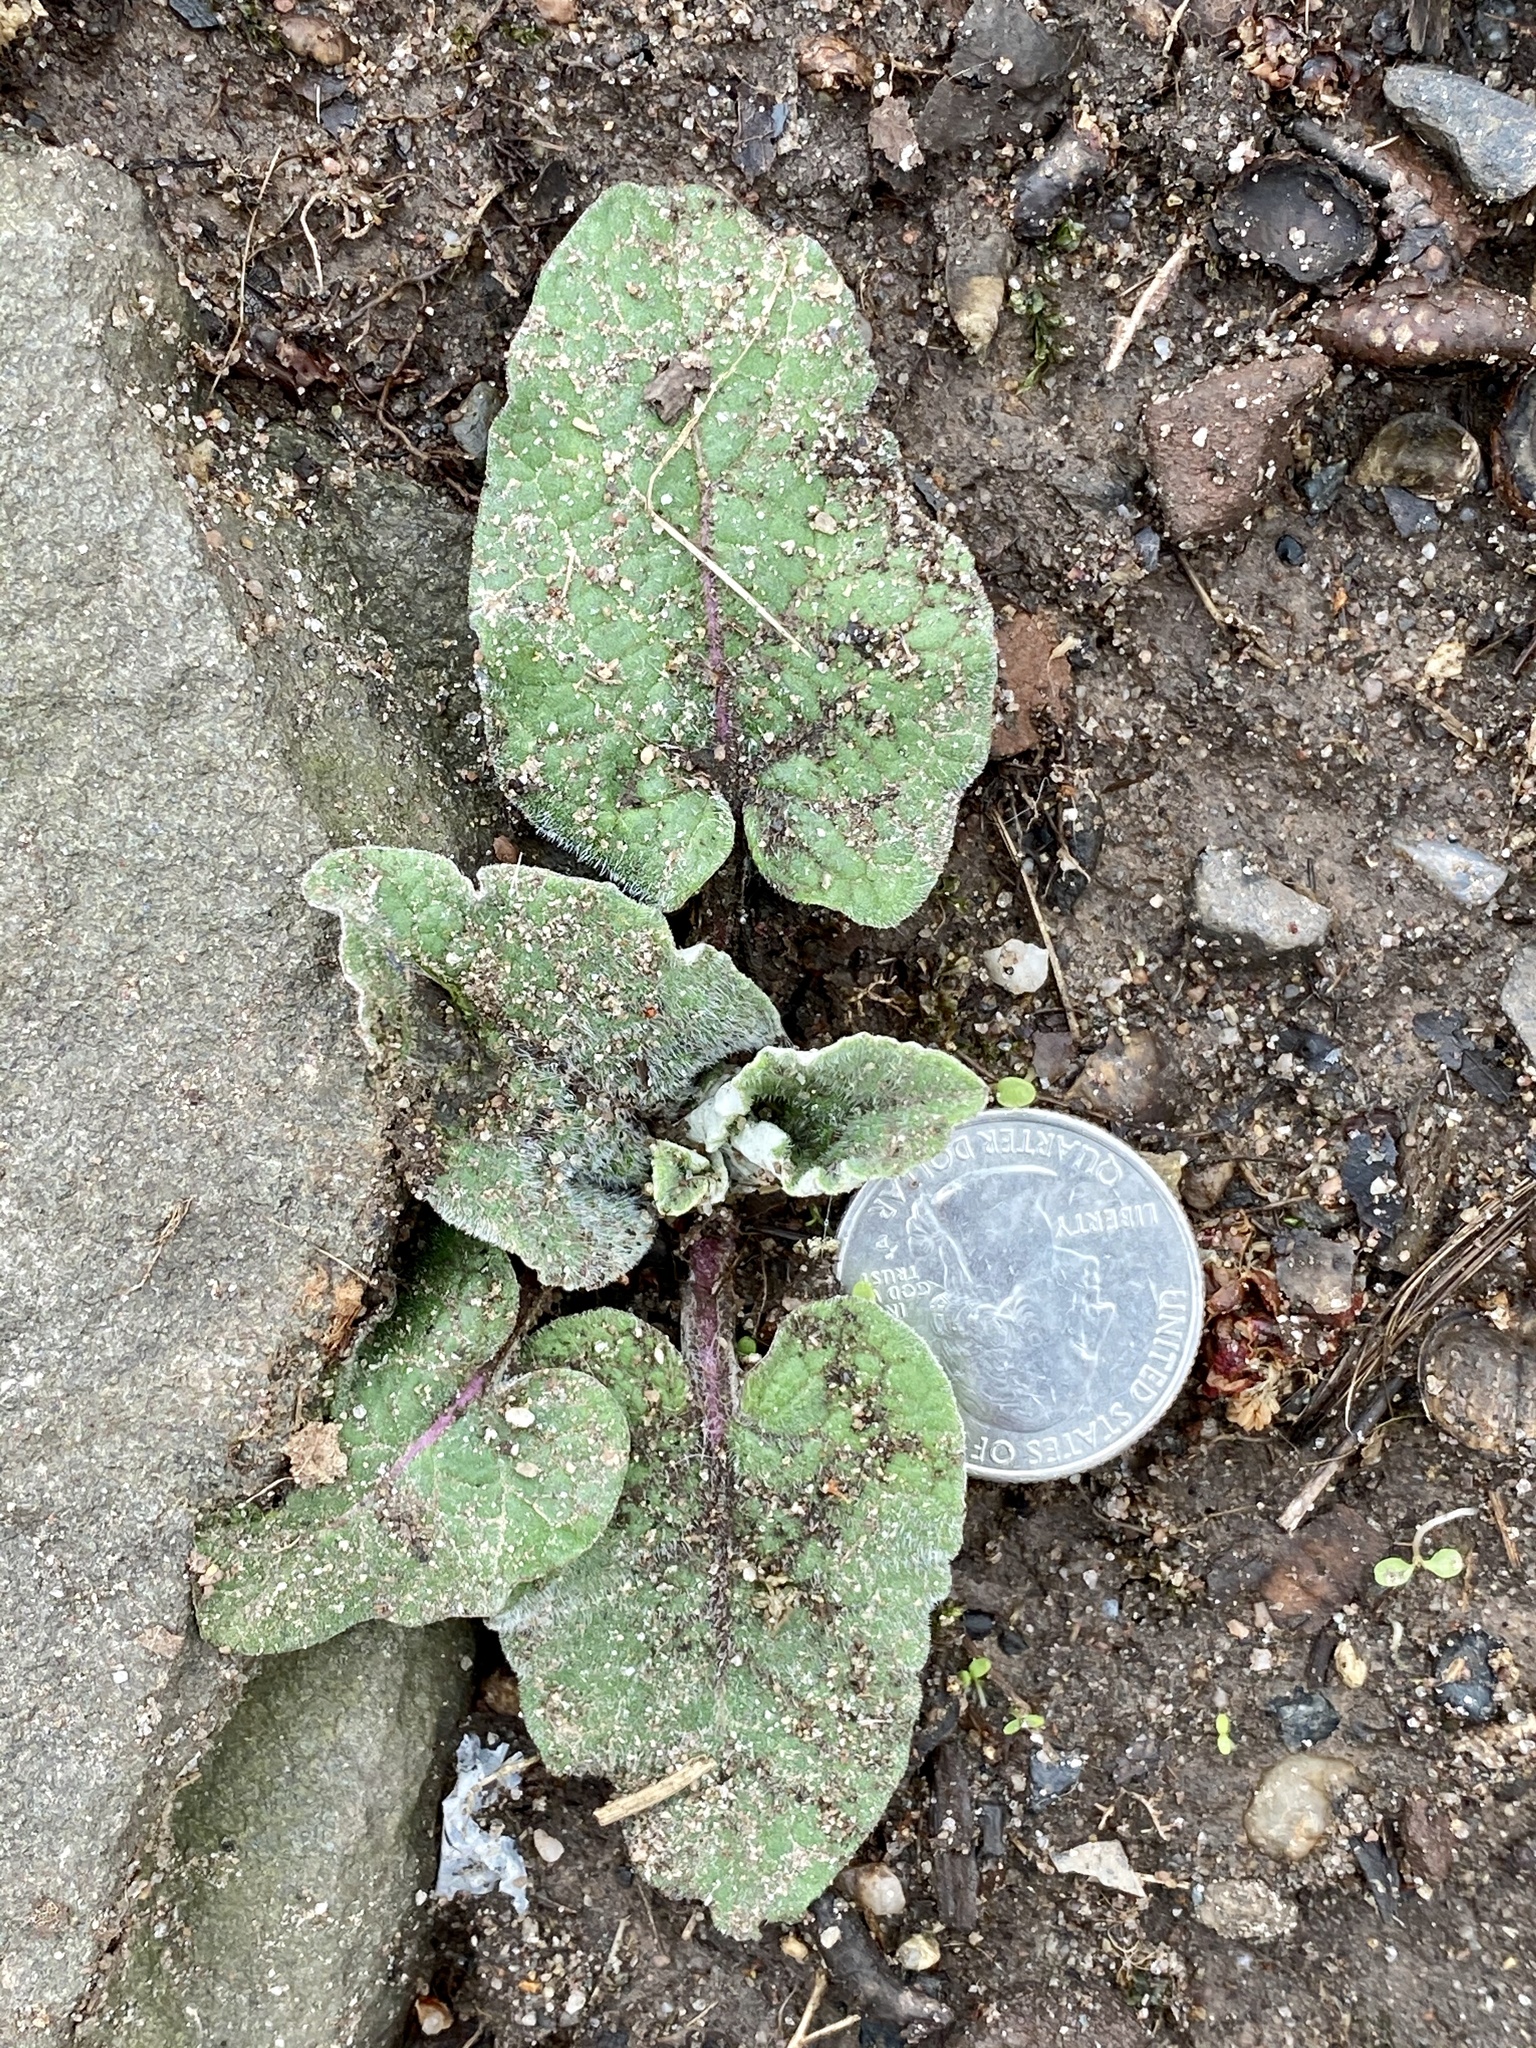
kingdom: Plantae
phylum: Tracheophyta
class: Magnoliopsida
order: Asterales
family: Asteraceae
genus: Arctium
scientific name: Arctium
